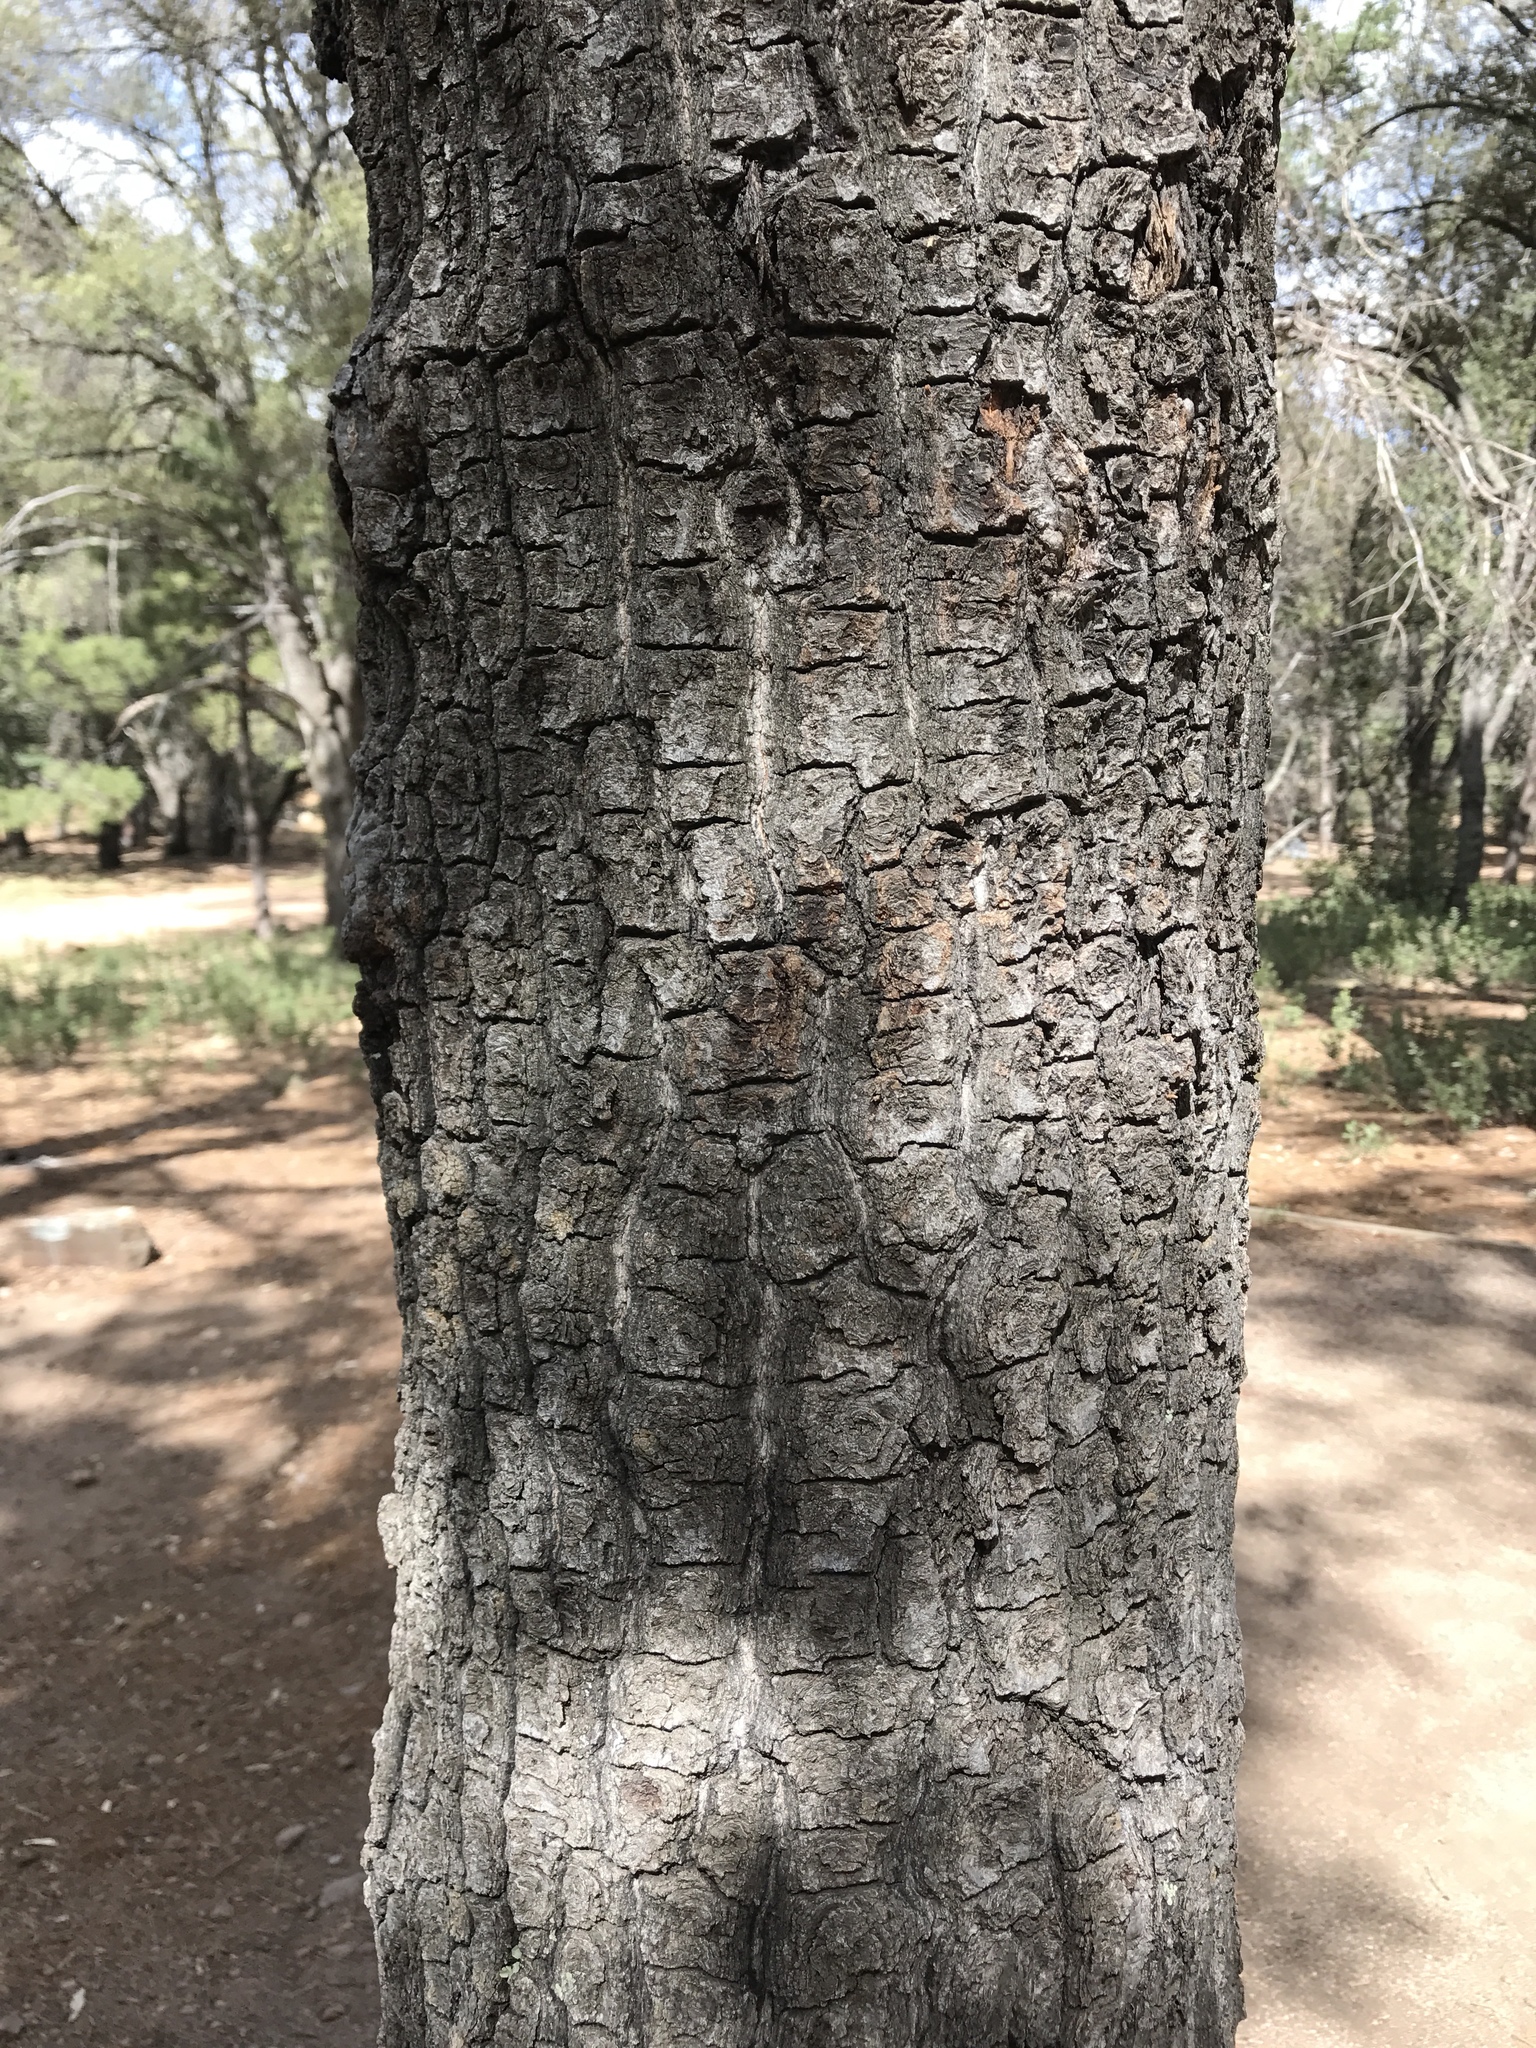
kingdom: Plantae
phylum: Tracheophyta
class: Magnoliopsida
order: Fagales
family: Fagaceae
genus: Quercus
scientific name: Quercus hypoleucoides
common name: Silverleaf oak
